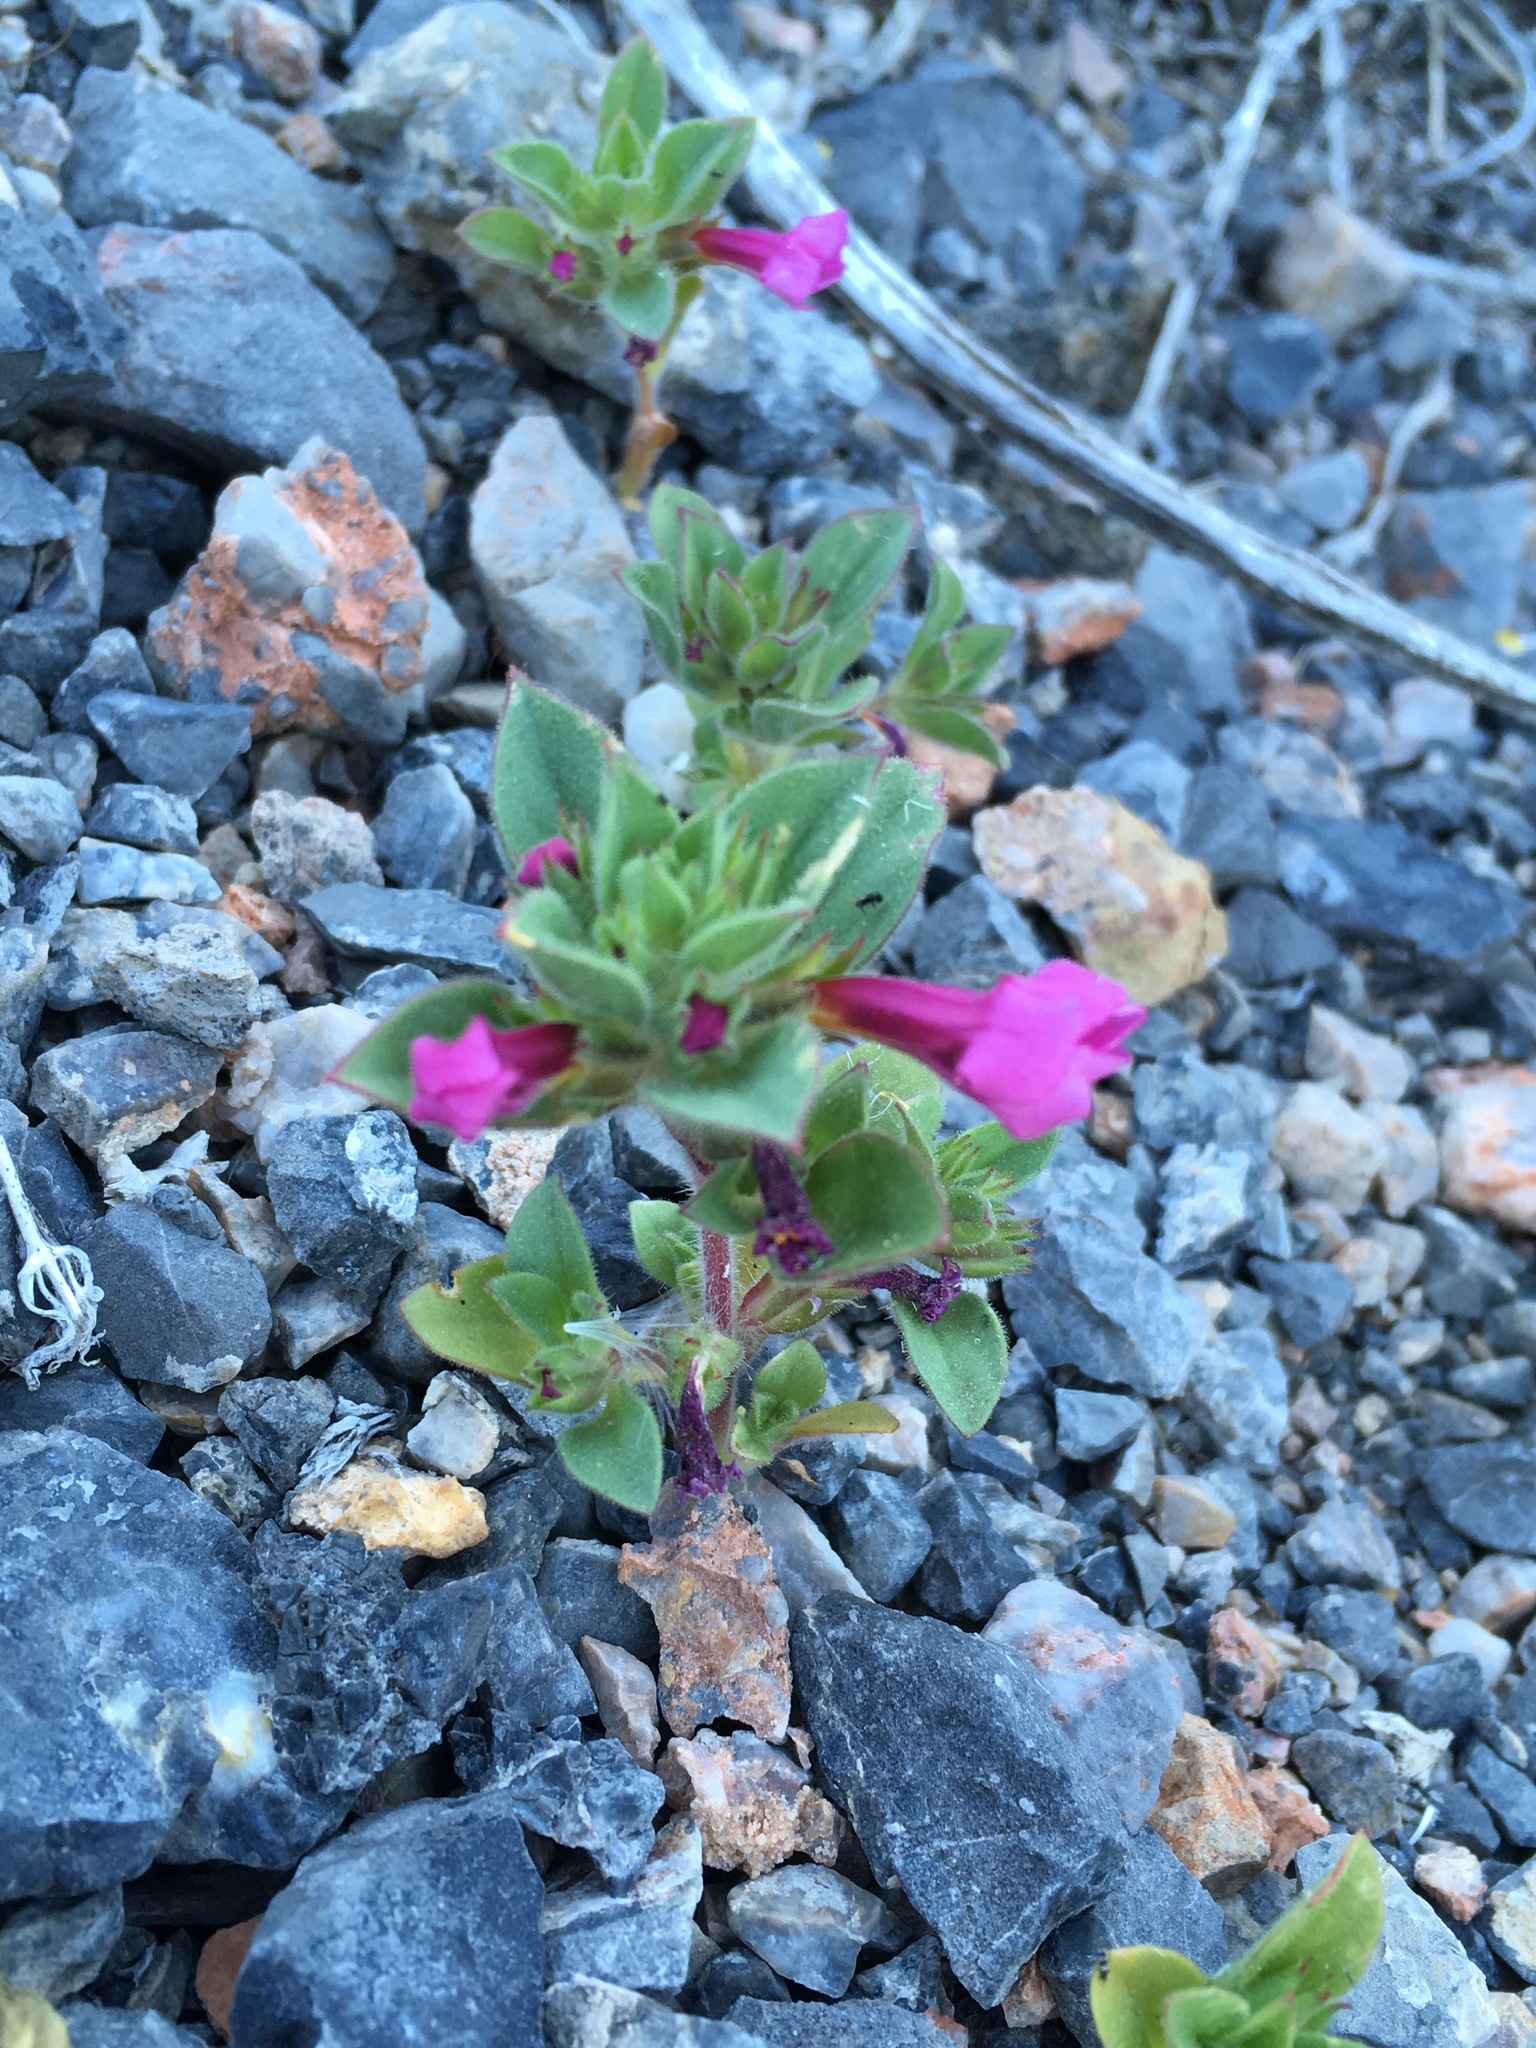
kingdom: Plantae
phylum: Tracheophyta
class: Magnoliopsida
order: Lamiales
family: Phrymaceae
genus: Diplacus
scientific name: Diplacus bigelovii
